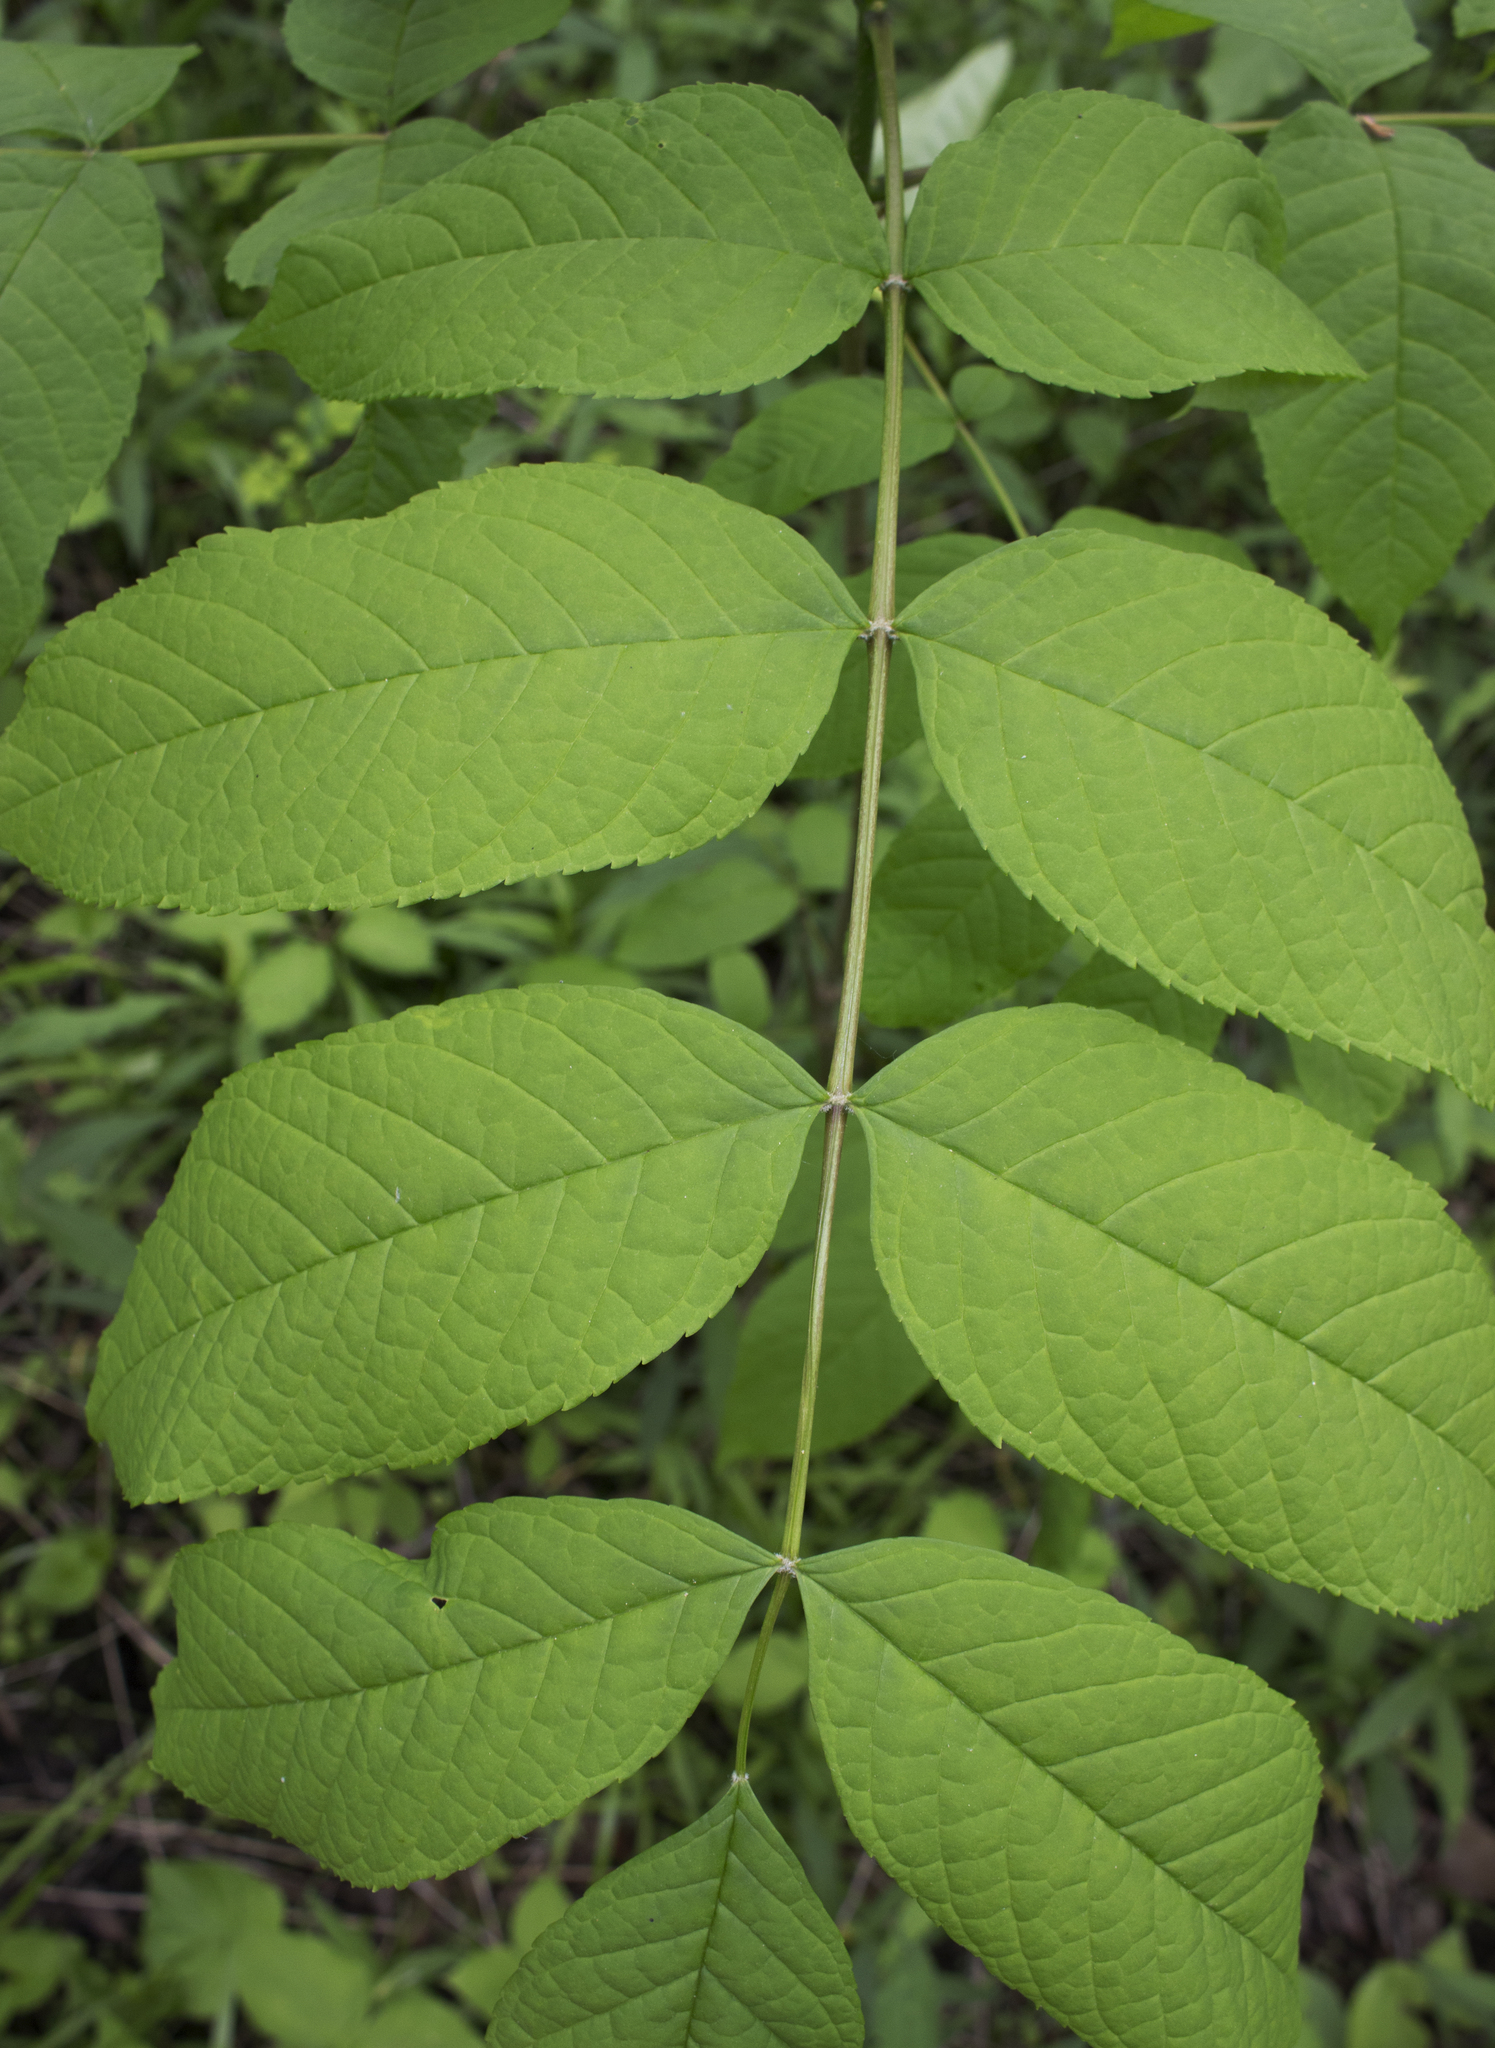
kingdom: Plantae
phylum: Tracheophyta
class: Magnoliopsida
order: Lamiales
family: Oleaceae
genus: Fraxinus
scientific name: Fraxinus nigra
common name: Black ash
